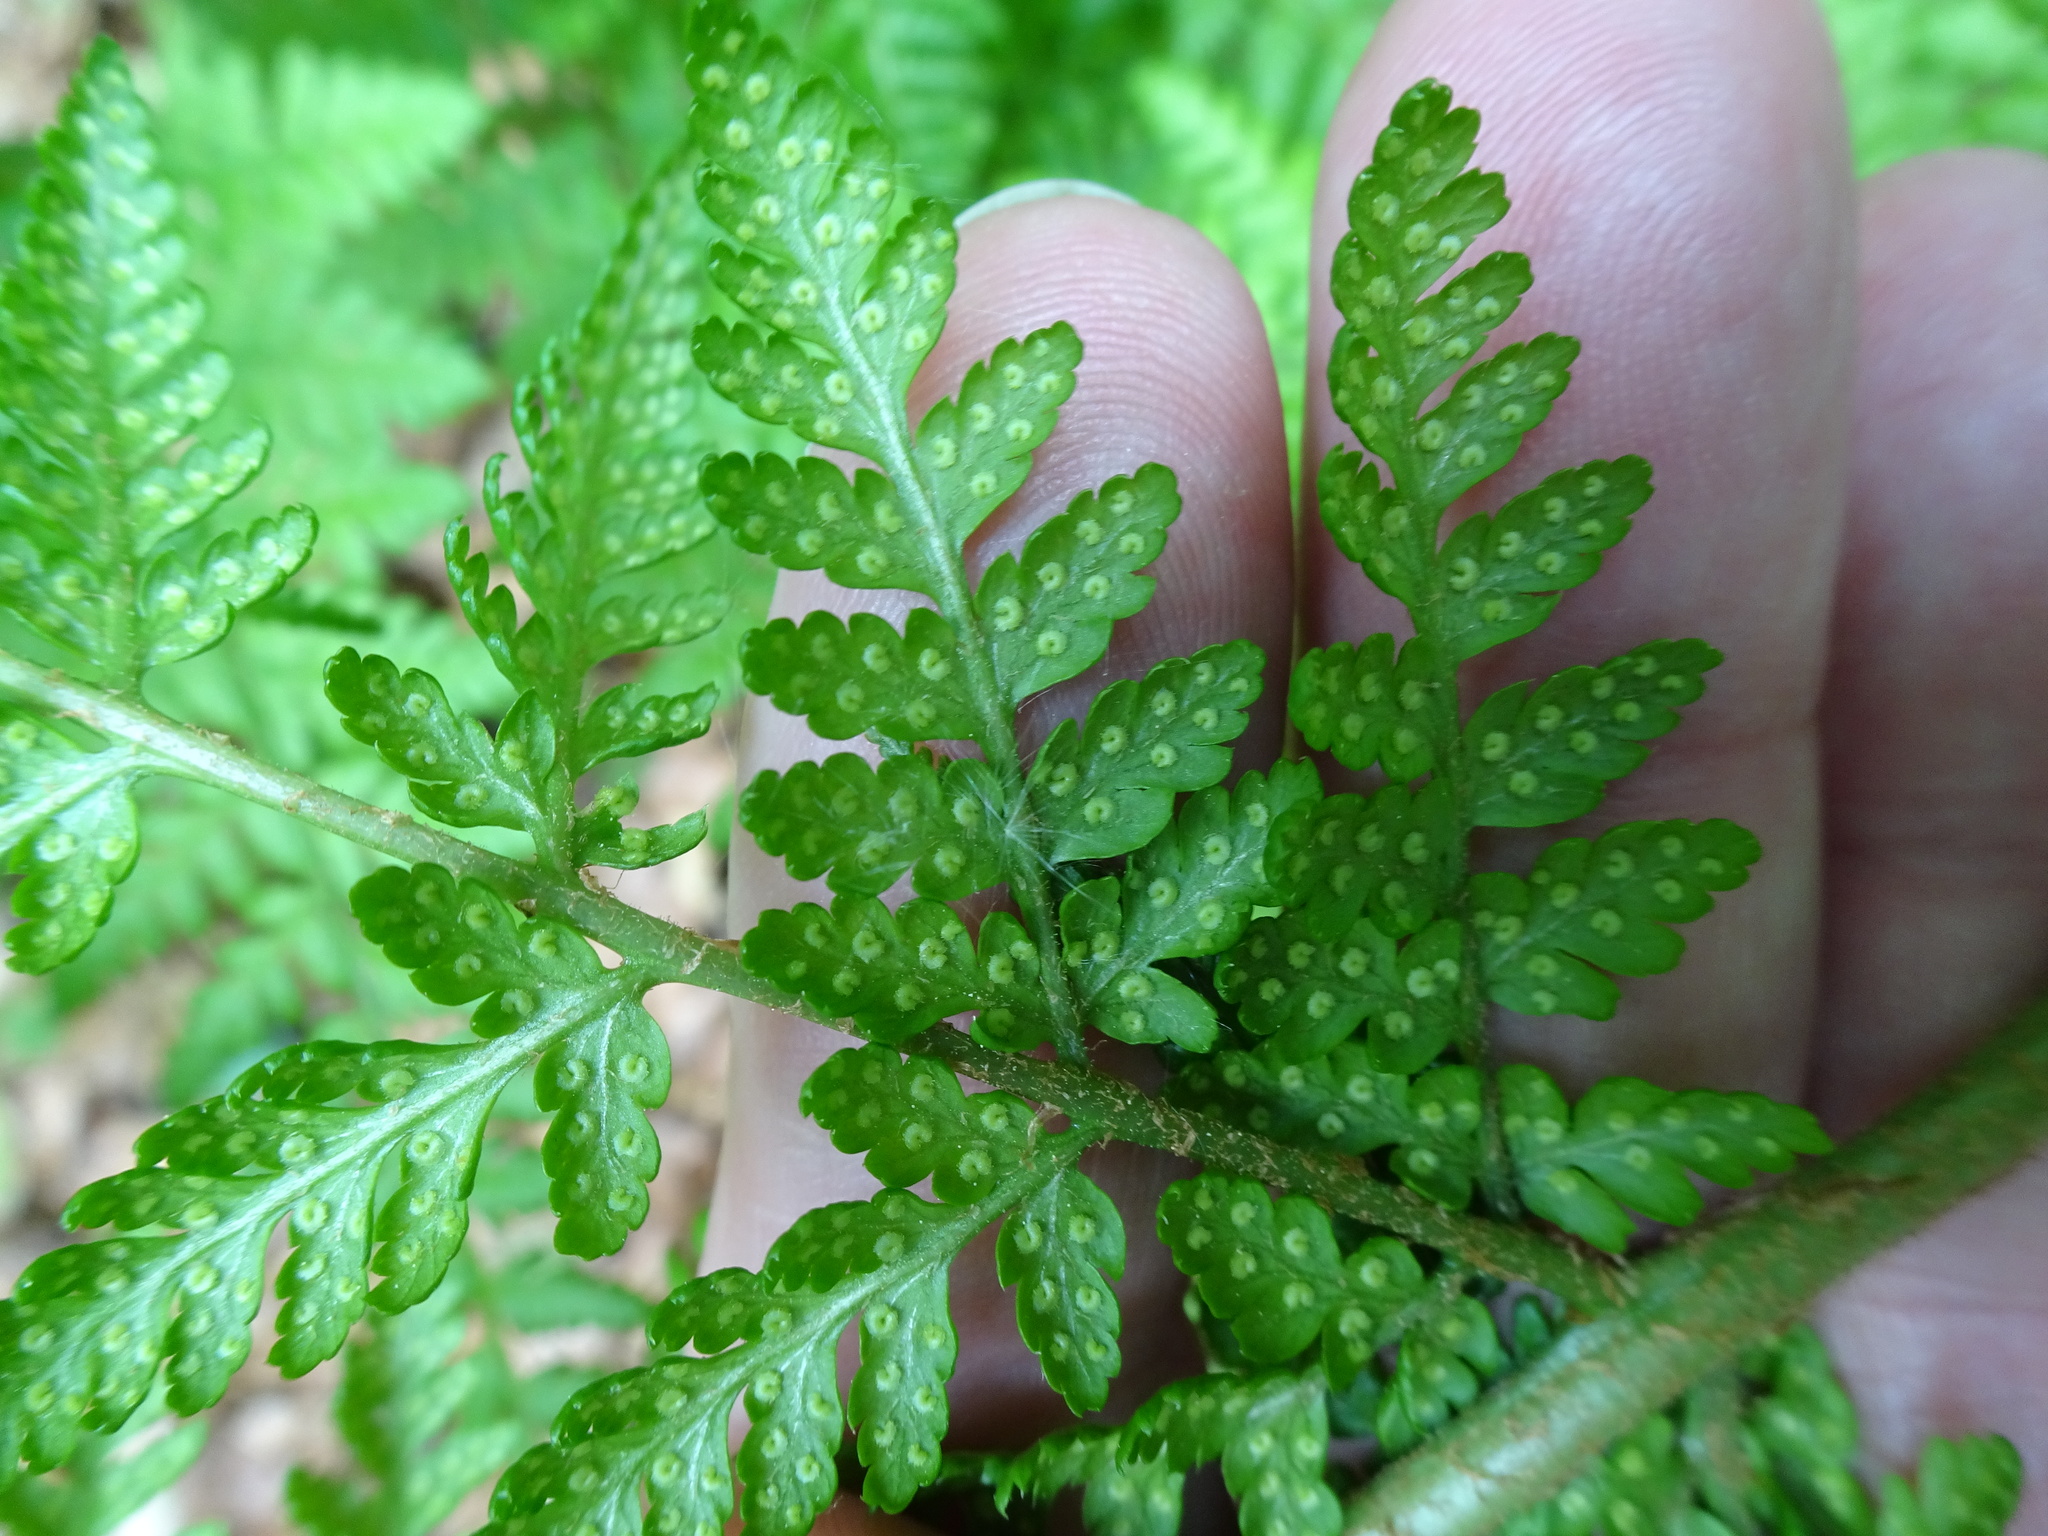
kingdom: Plantae
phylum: Tracheophyta
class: Polypodiopsida
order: Polypodiales
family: Dryopteridaceae
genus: Dryopteris
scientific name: Dryopteris dilatata
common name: Broad buckler-fern
